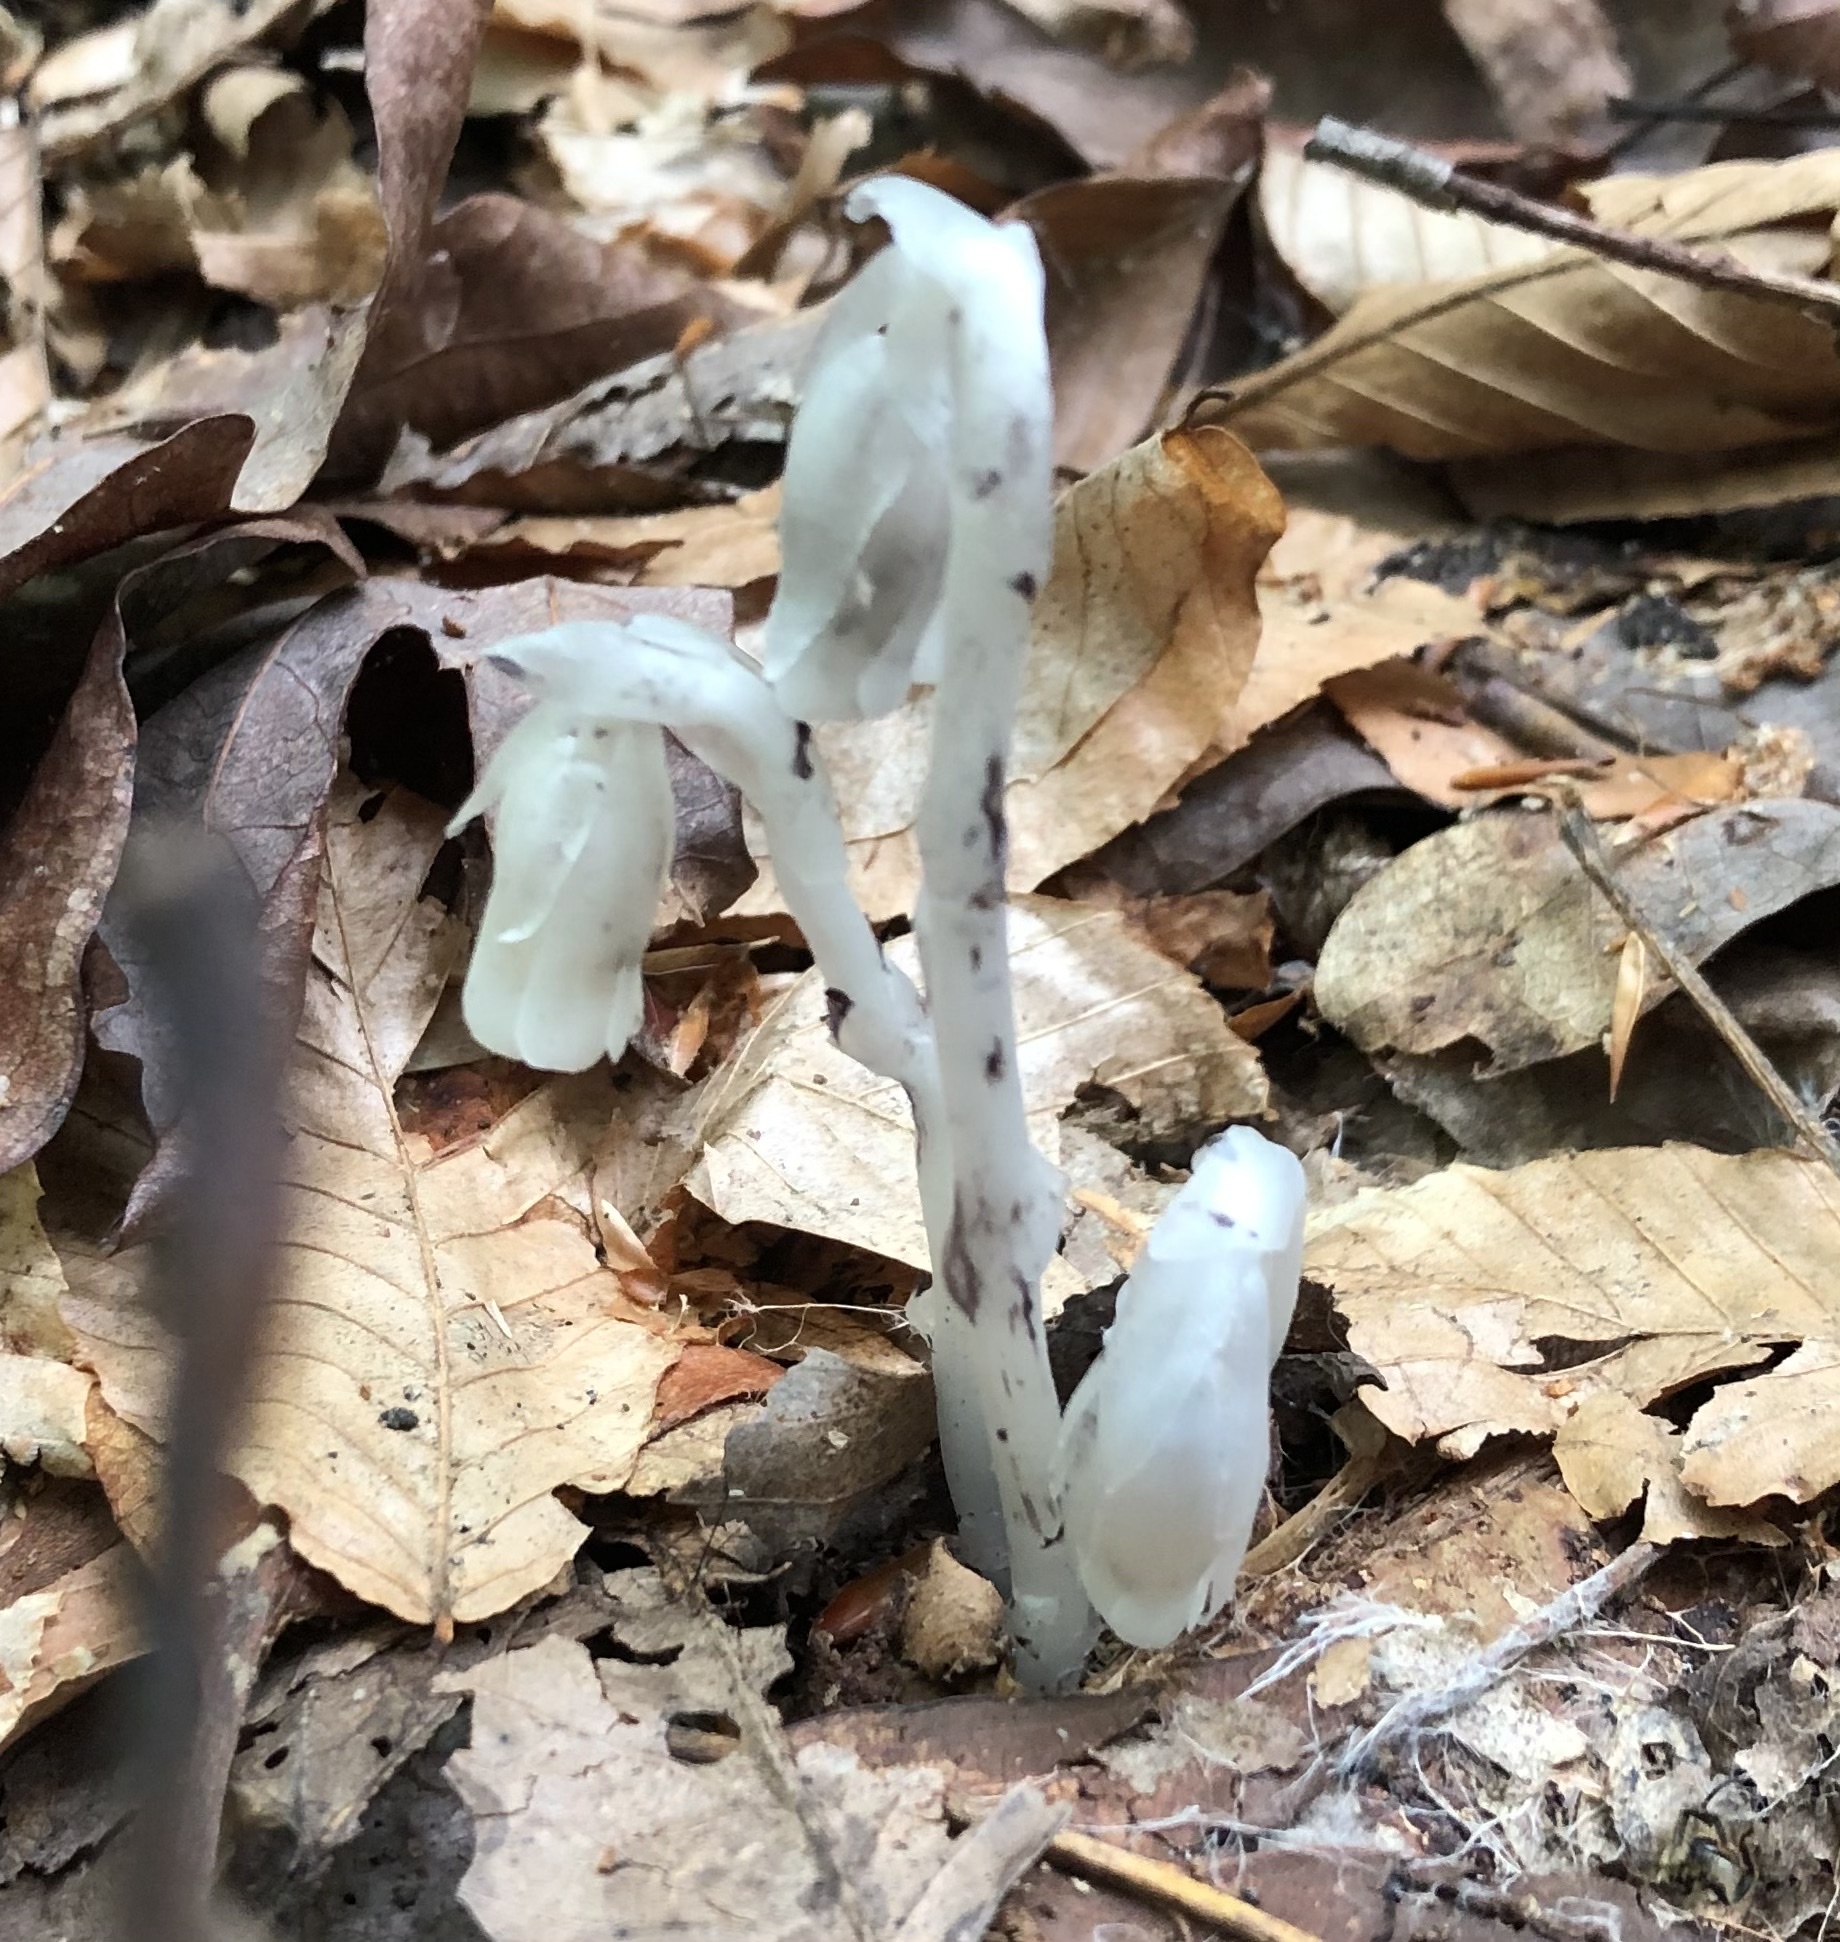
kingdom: Plantae
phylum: Tracheophyta
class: Magnoliopsida
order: Ericales
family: Ericaceae
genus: Monotropa
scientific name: Monotropa uniflora
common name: Convulsion root
